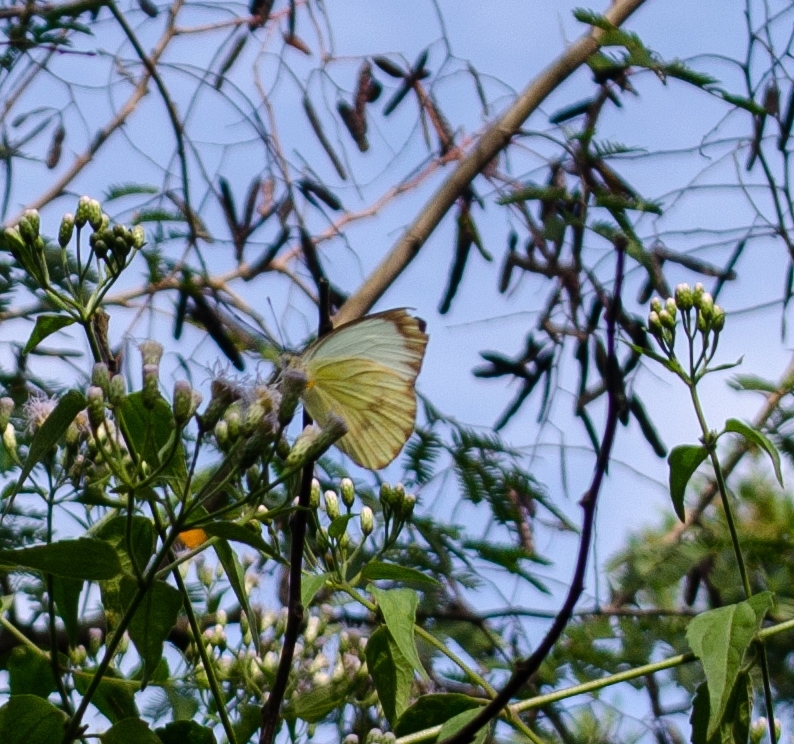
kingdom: Animalia
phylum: Arthropoda
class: Insecta
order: Lepidoptera
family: Pieridae
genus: Ascia
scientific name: Ascia monuste
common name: Great southern white
